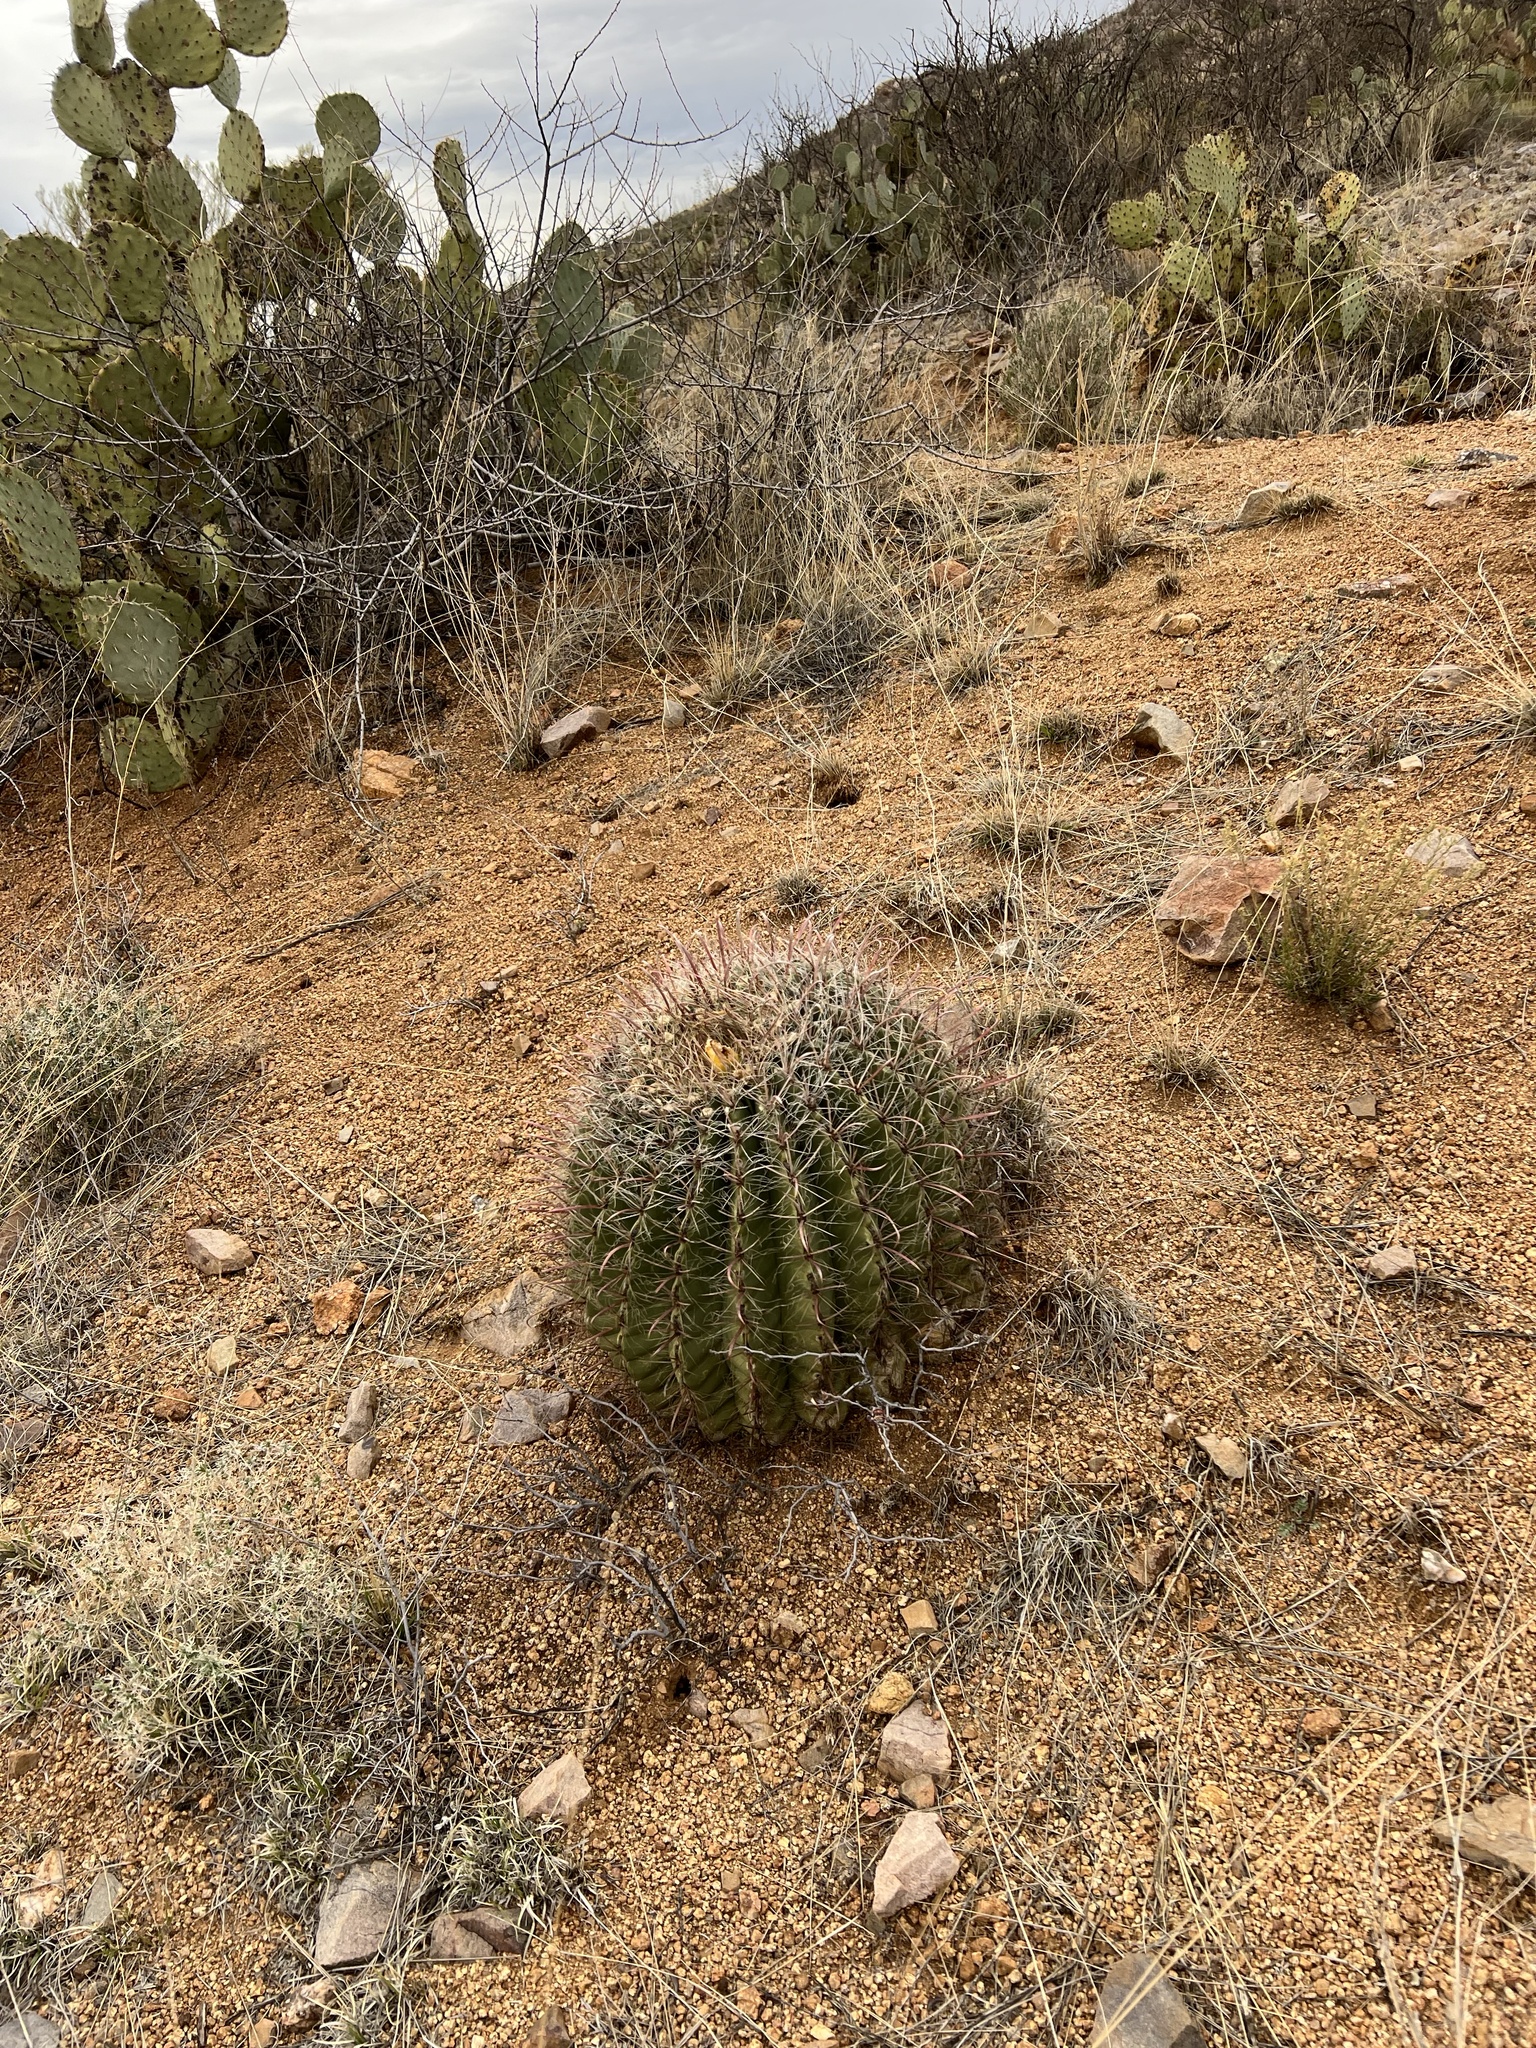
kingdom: Plantae
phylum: Tracheophyta
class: Magnoliopsida
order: Caryophyllales
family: Cactaceae
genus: Ferocactus
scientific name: Ferocactus wislizeni
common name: Candy barrel cactus
